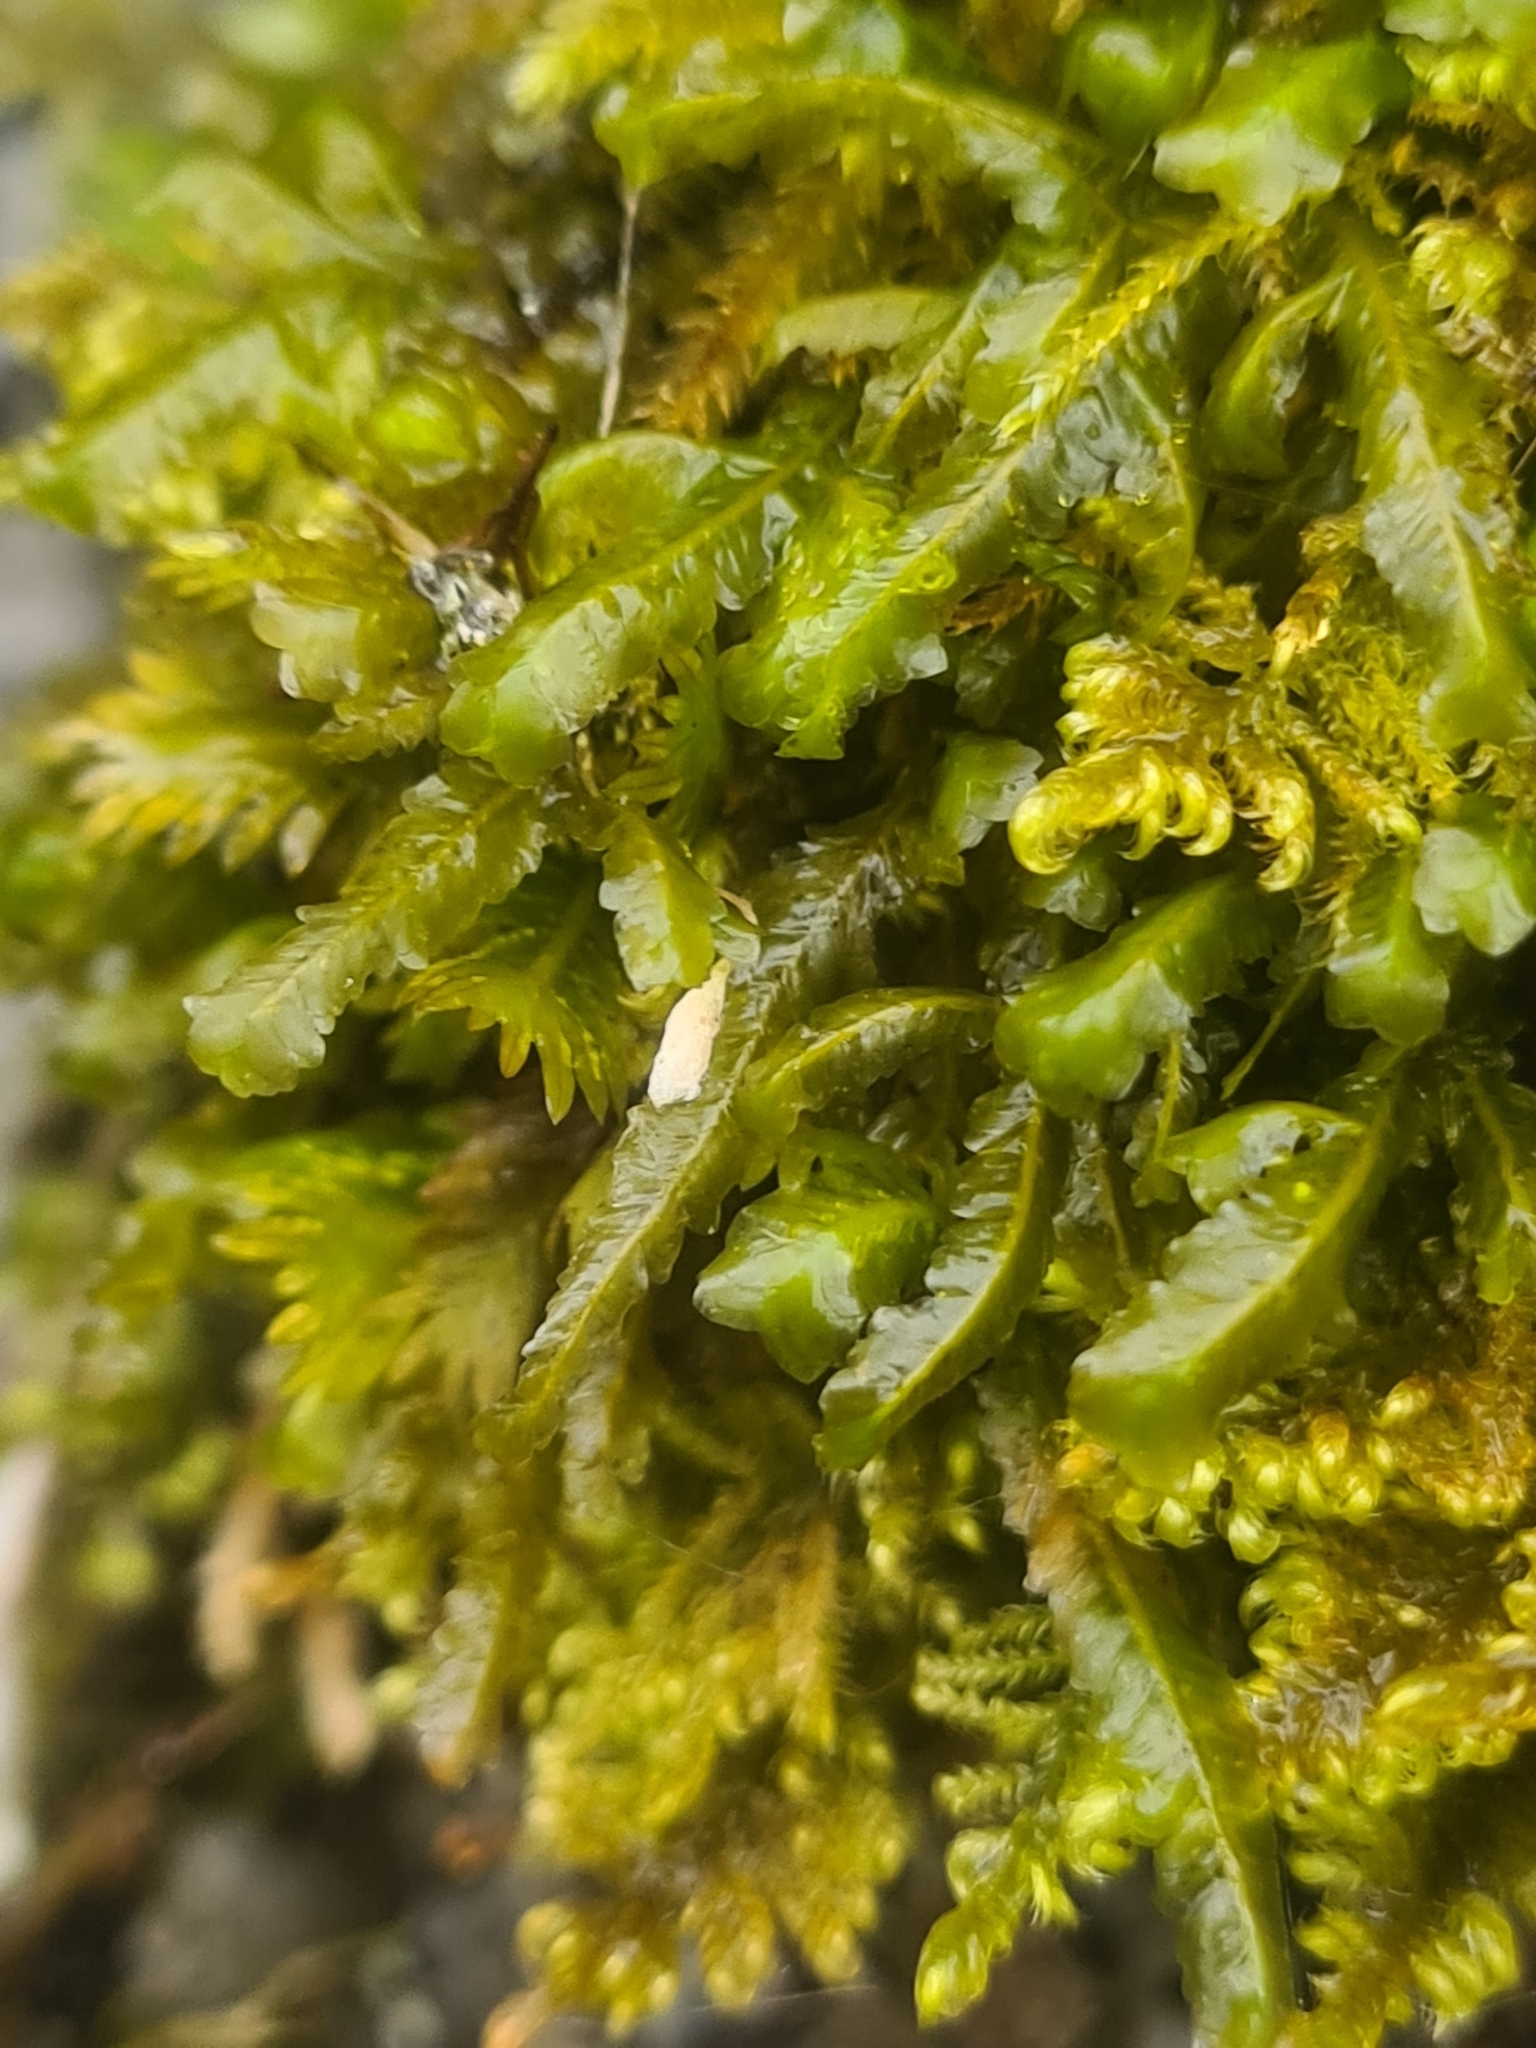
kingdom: Plantae
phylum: Bryophyta
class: Bryopsida
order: Hypnales
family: Neckeraceae
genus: Homalia
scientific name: Homalia trichomanoides
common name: Lime homalia moss
